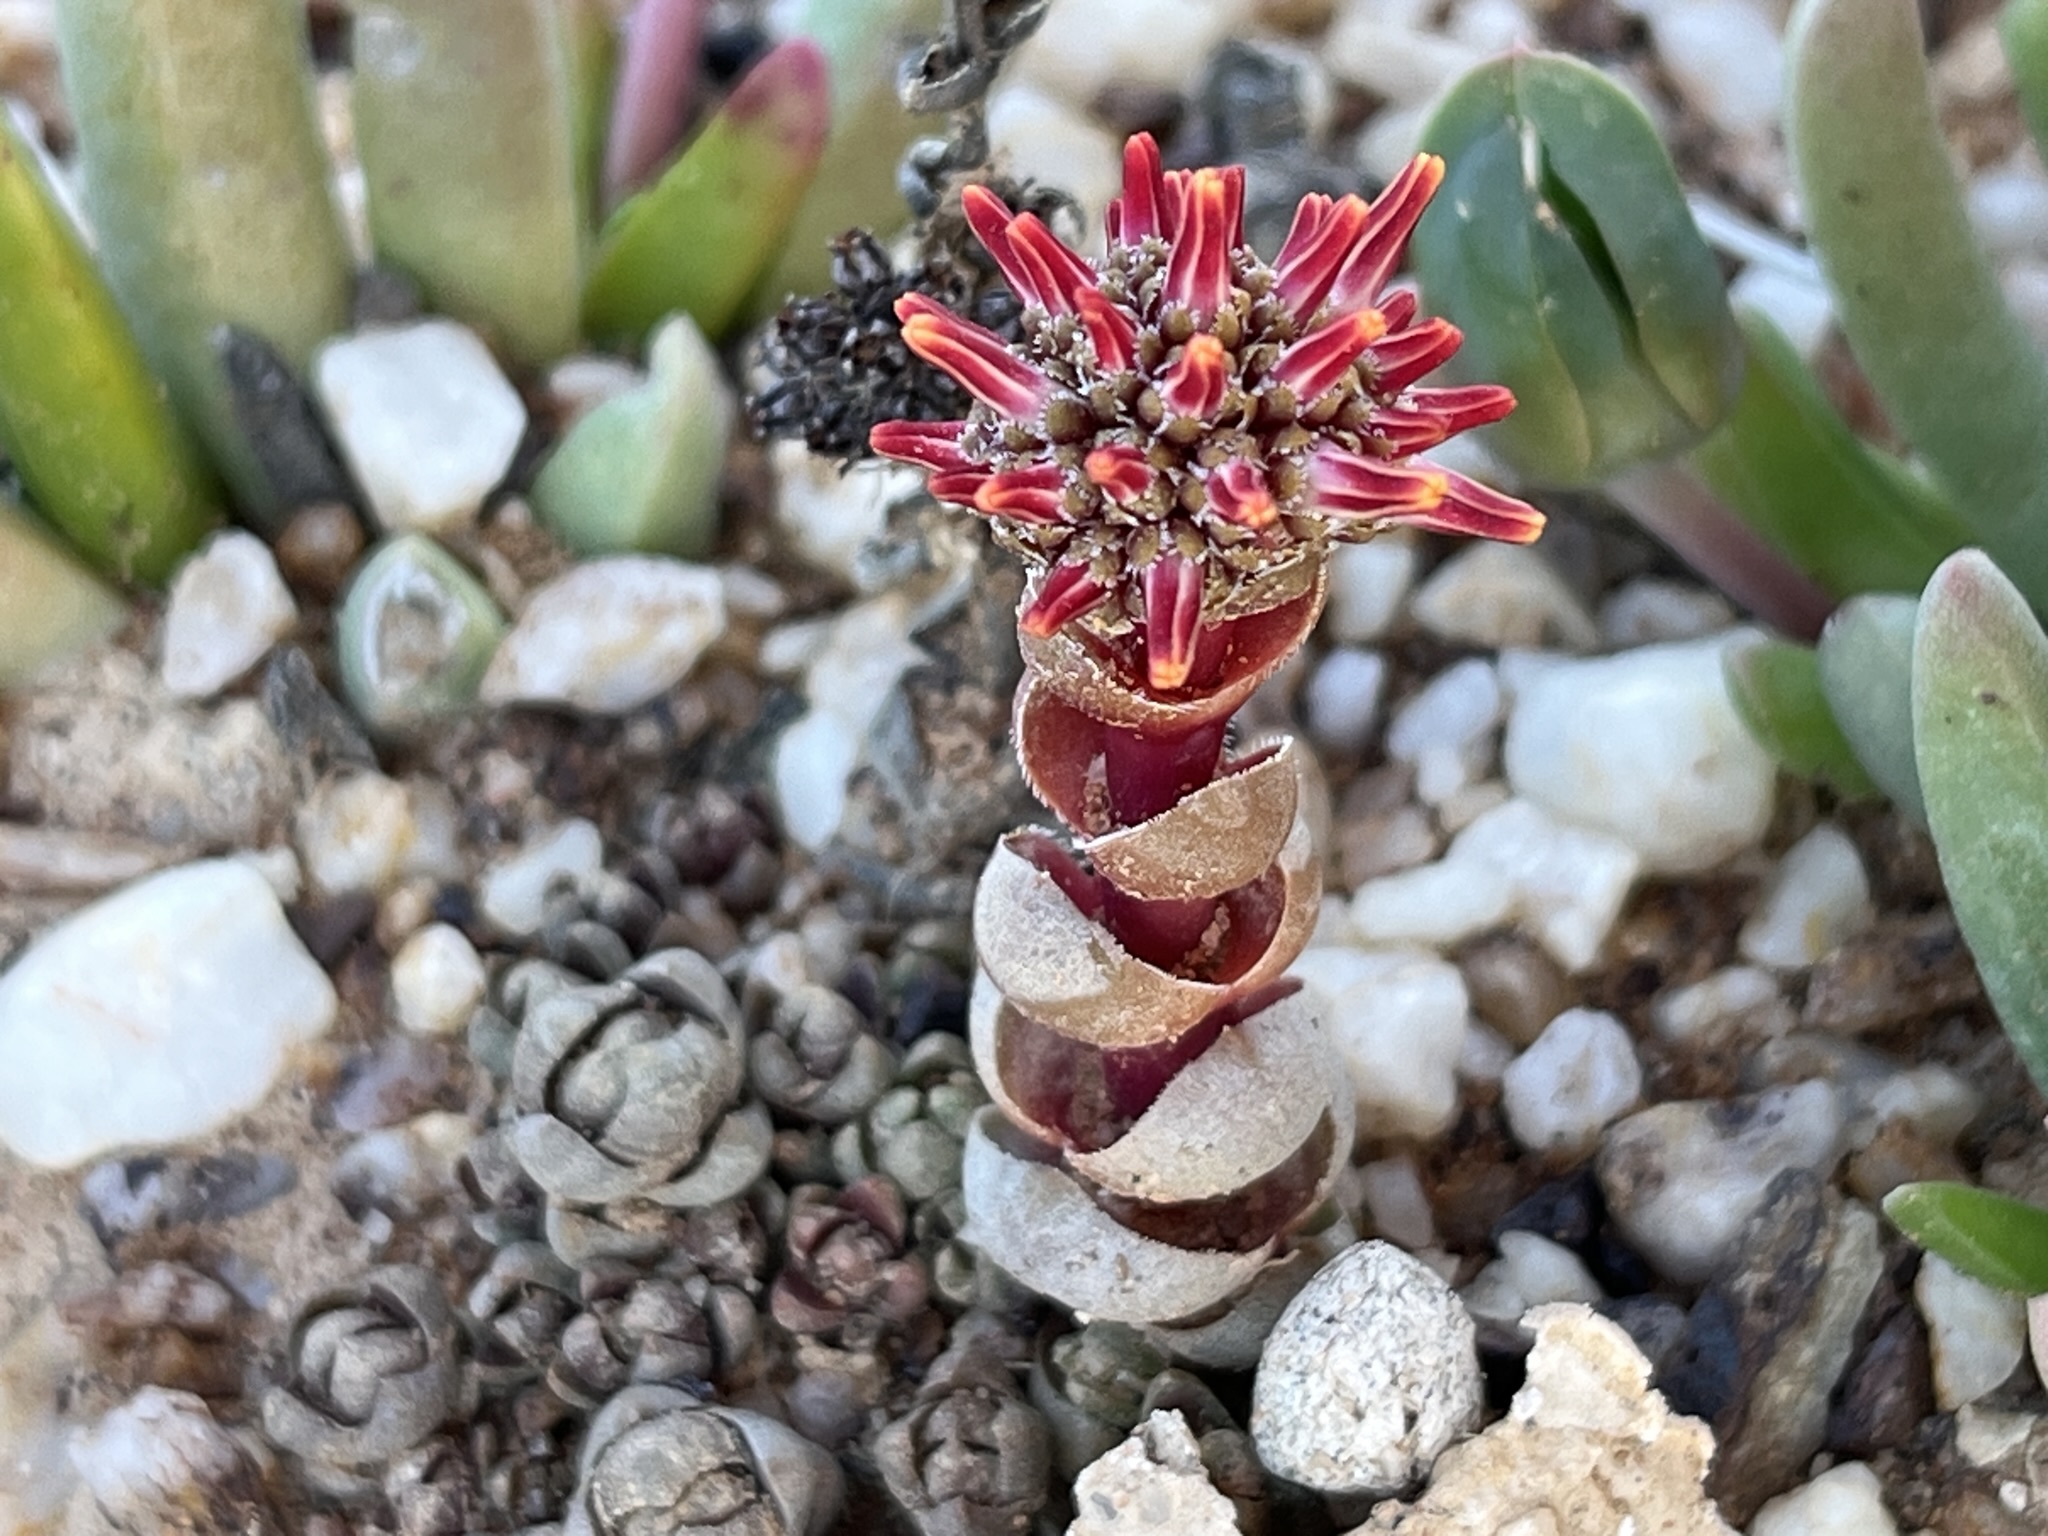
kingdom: Plantae
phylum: Tracheophyta
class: Magnoliopsida
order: Saxifragales
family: Crassulaceae
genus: Crassula
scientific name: Crassula columnaris
